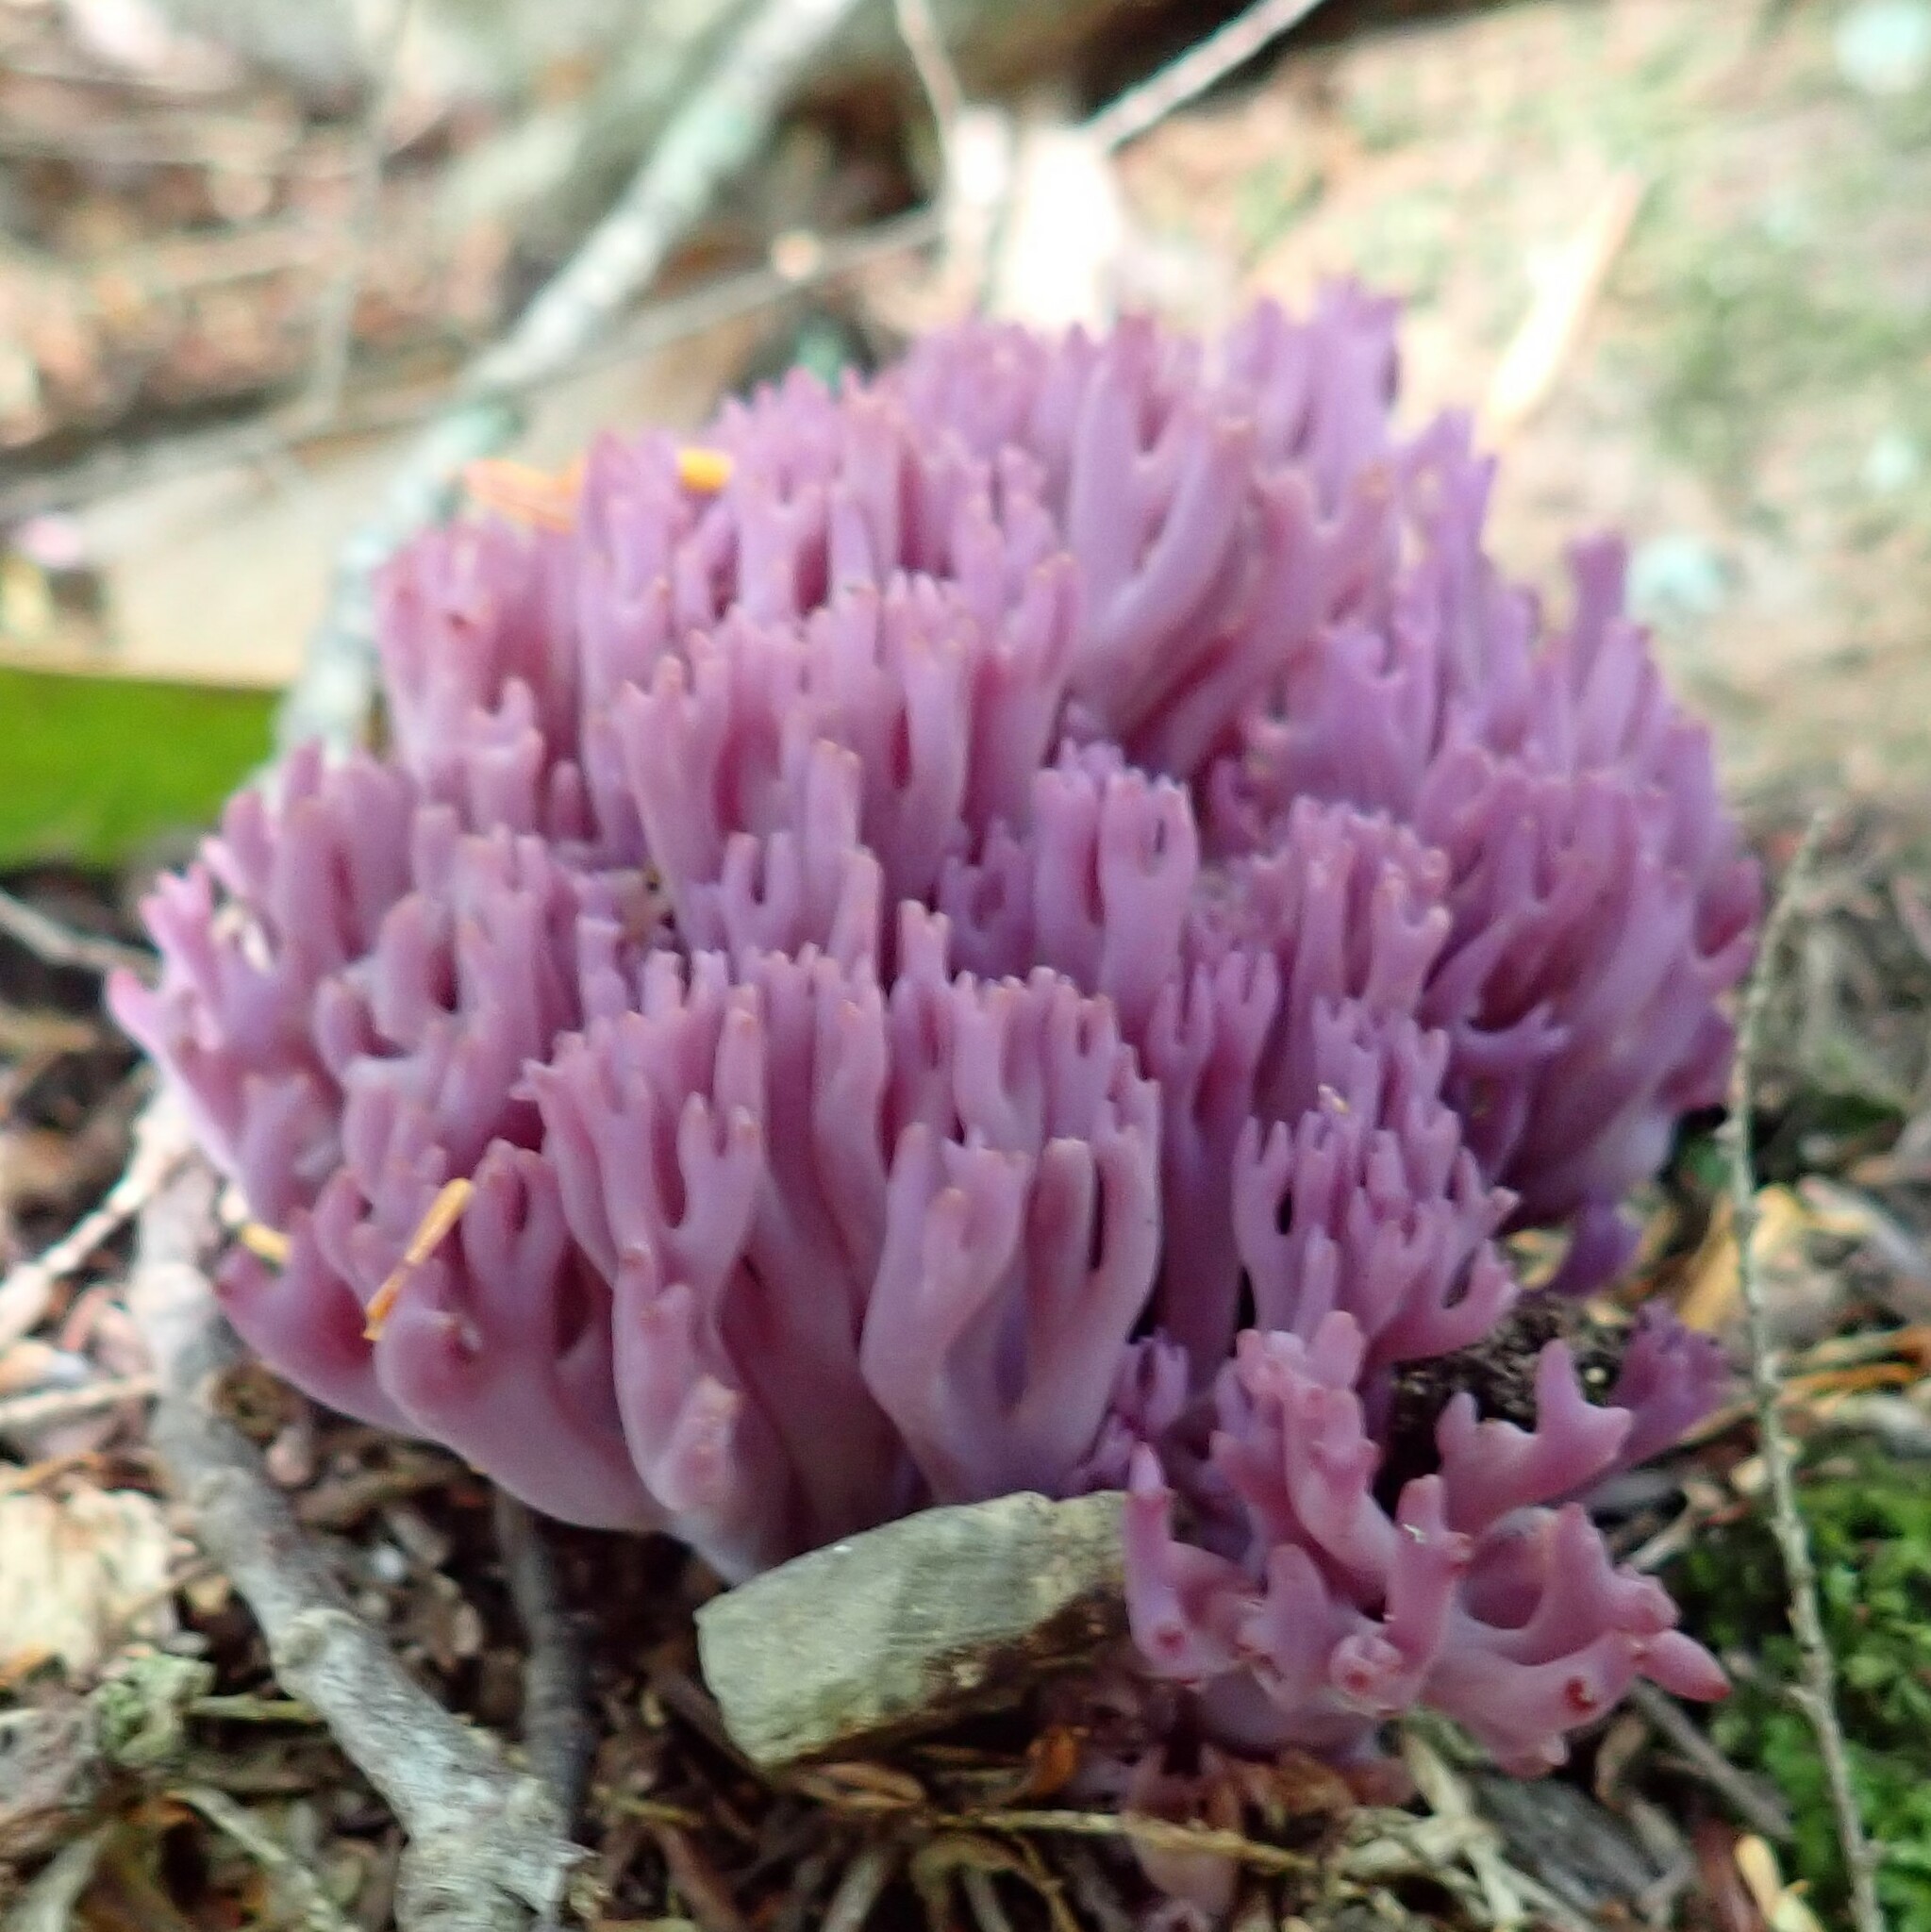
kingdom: Fungi
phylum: Basidiomycota
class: Agaricomycetes
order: Agaricales
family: Clavariaceae
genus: Clavaria
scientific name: Clavaria zollingeri
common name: Violet coral
